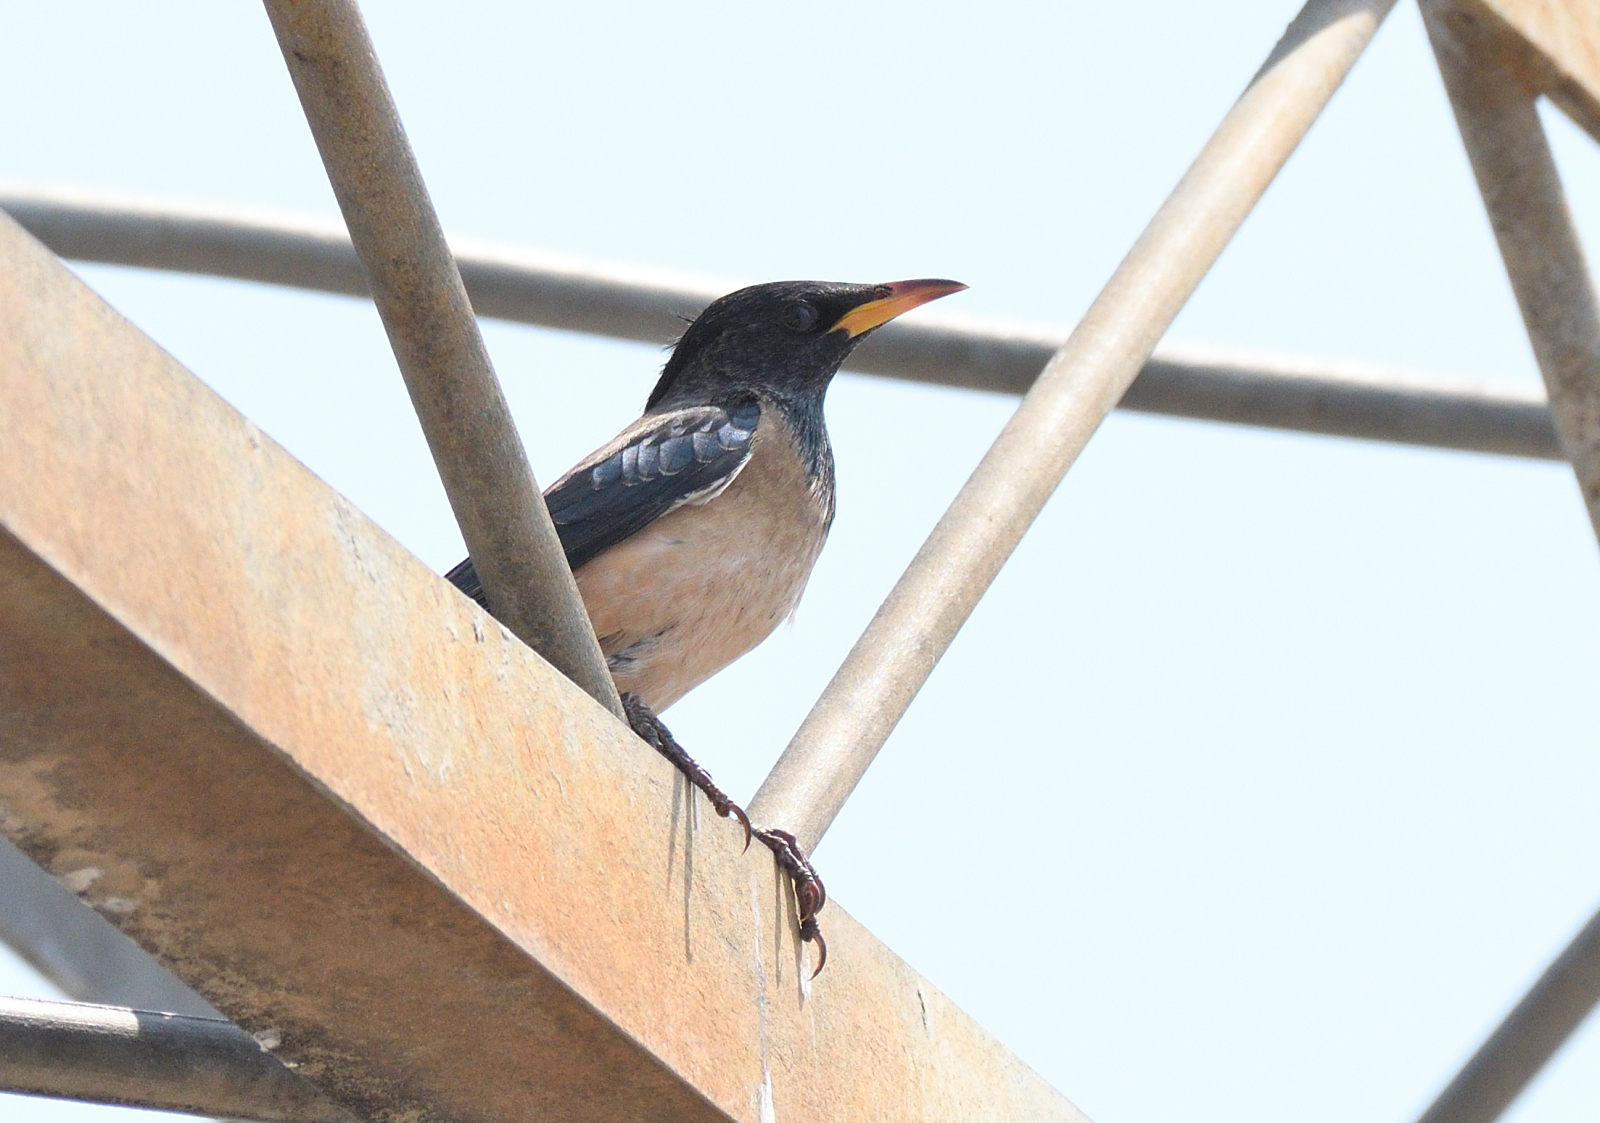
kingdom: Animalia
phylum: Chordata
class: Aves
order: Passeriformes
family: Sturnidae
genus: Pastor
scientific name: Pastor roseus
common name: Rosy starling
